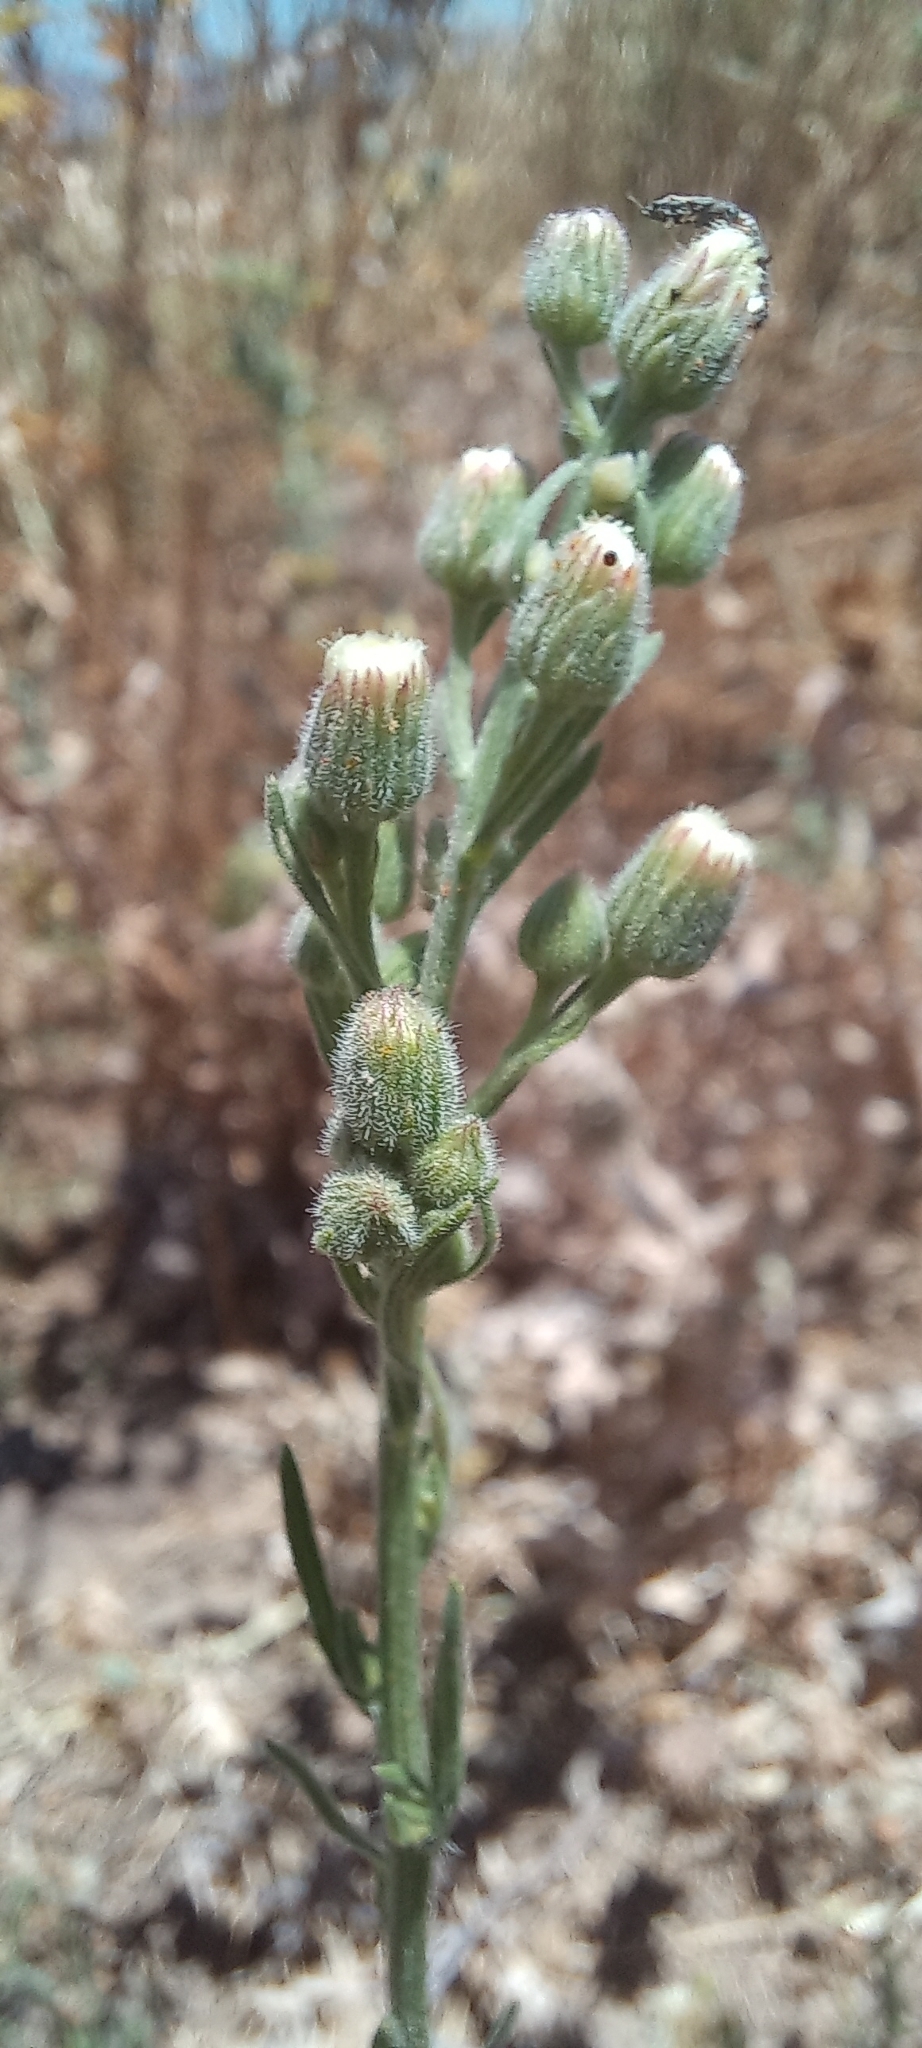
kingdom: Plantae
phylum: Tracheophyta
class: Magnoliopsida
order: Asterales
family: Asteraceae
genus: Erigeron
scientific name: Erigeron bonariensis
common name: Argentine fleabane
